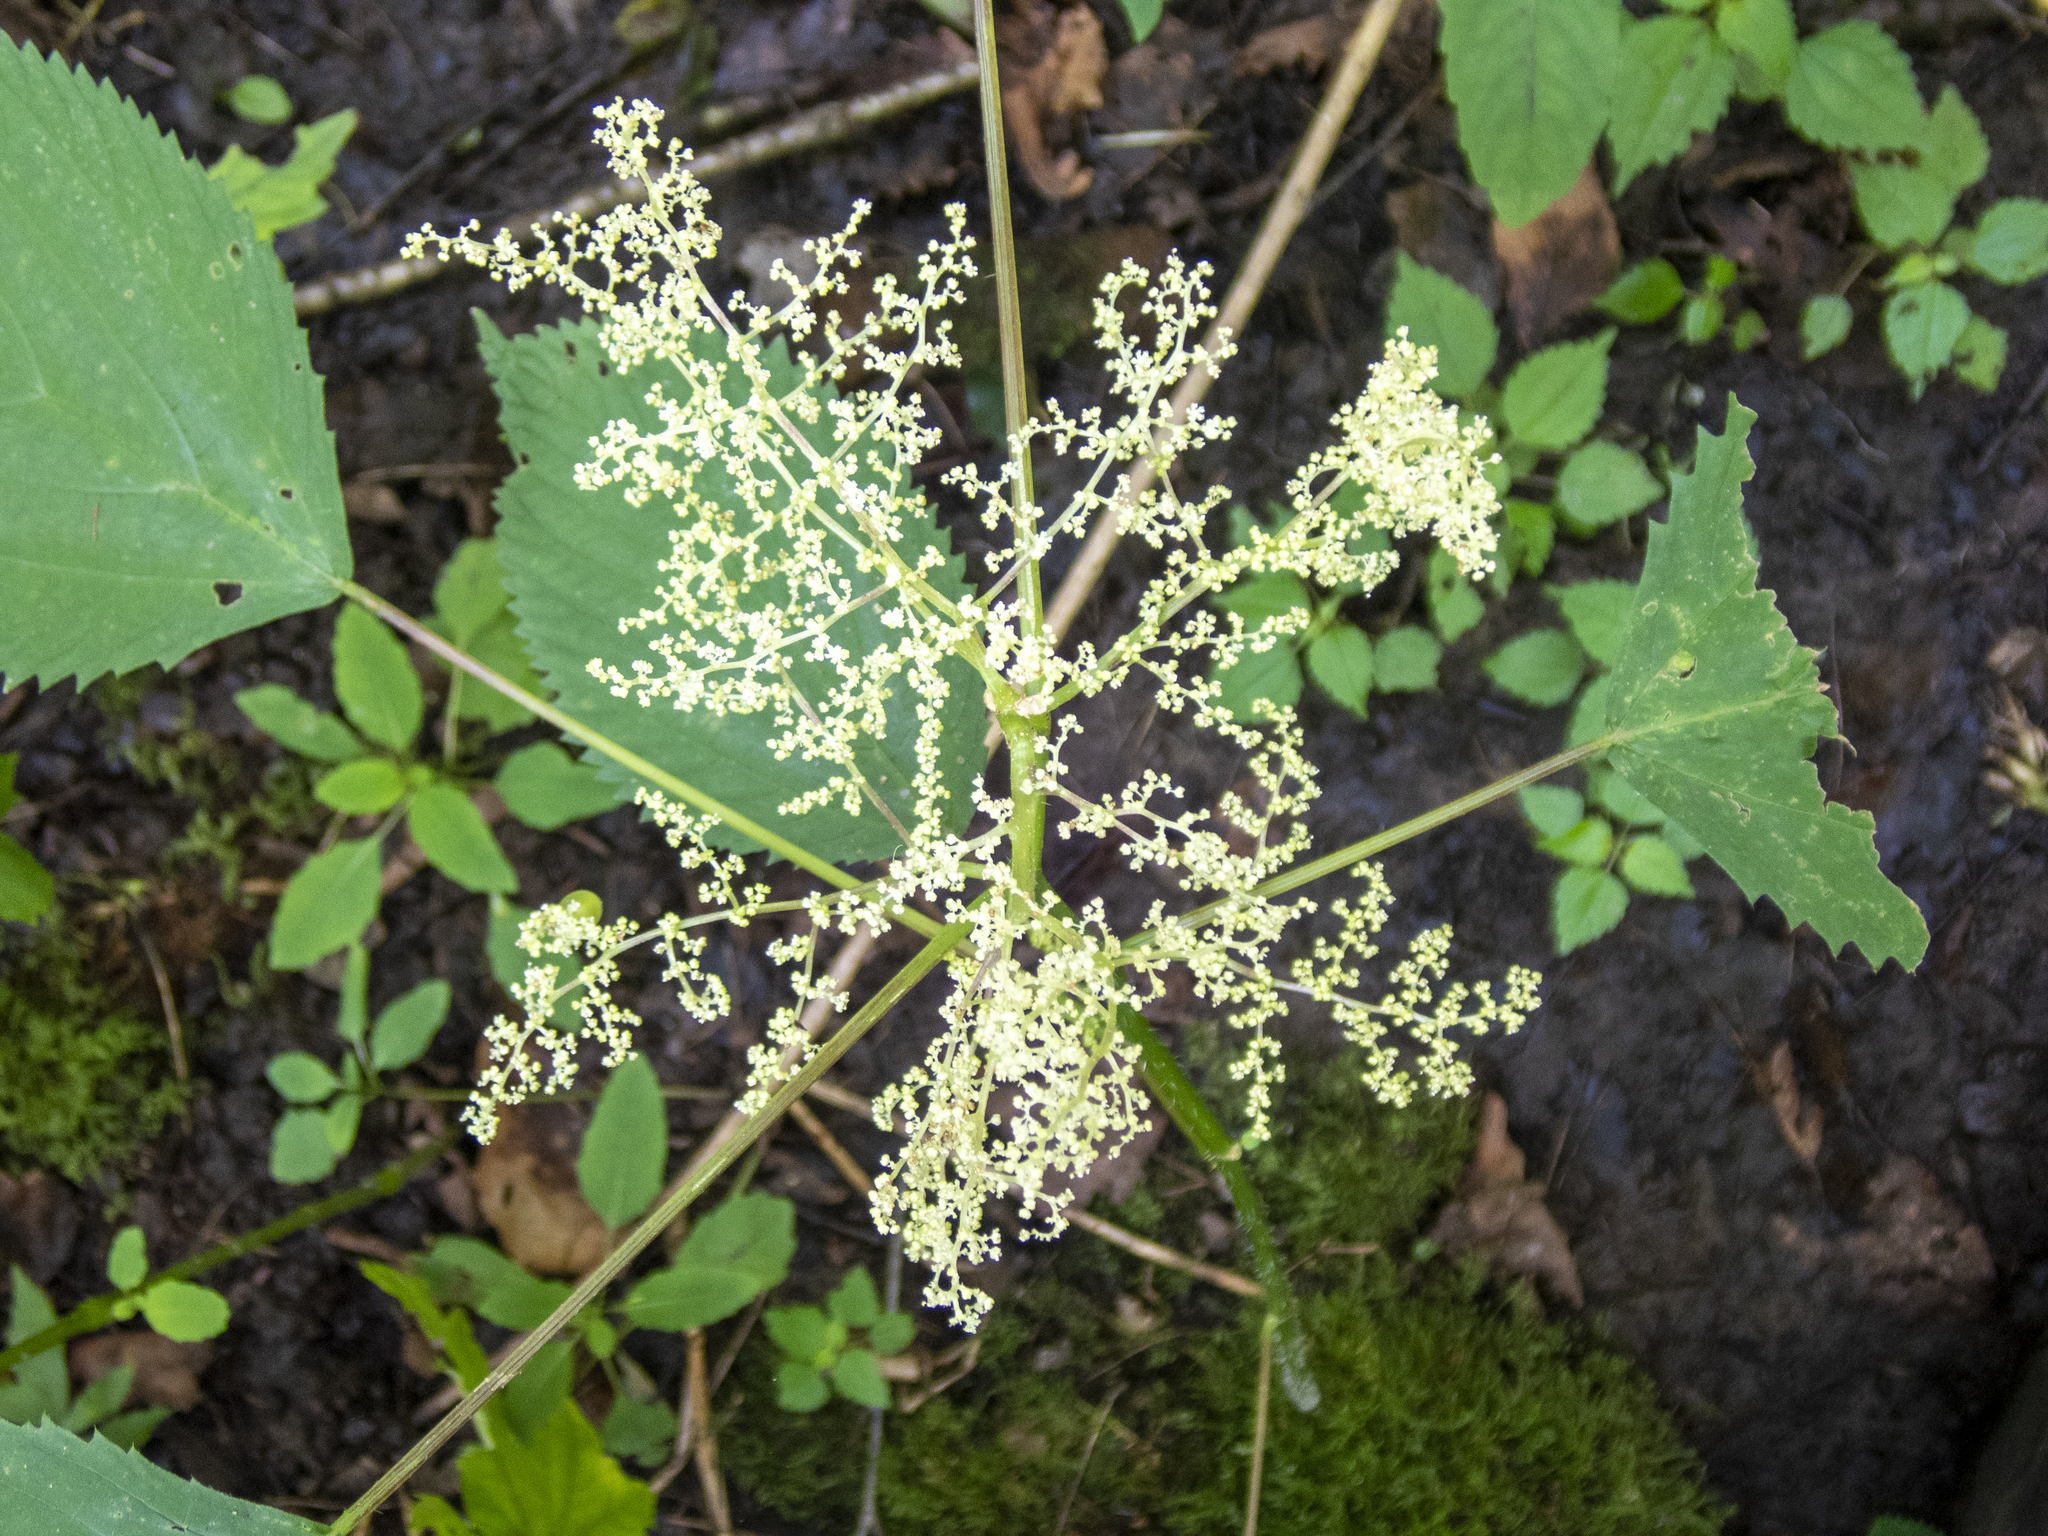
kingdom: Plantae
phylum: Tracheophyta
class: Magnoliopsida
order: Rosales
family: Urticaceae
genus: Laportea
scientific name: Laportea canadensis
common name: Canada nettle
